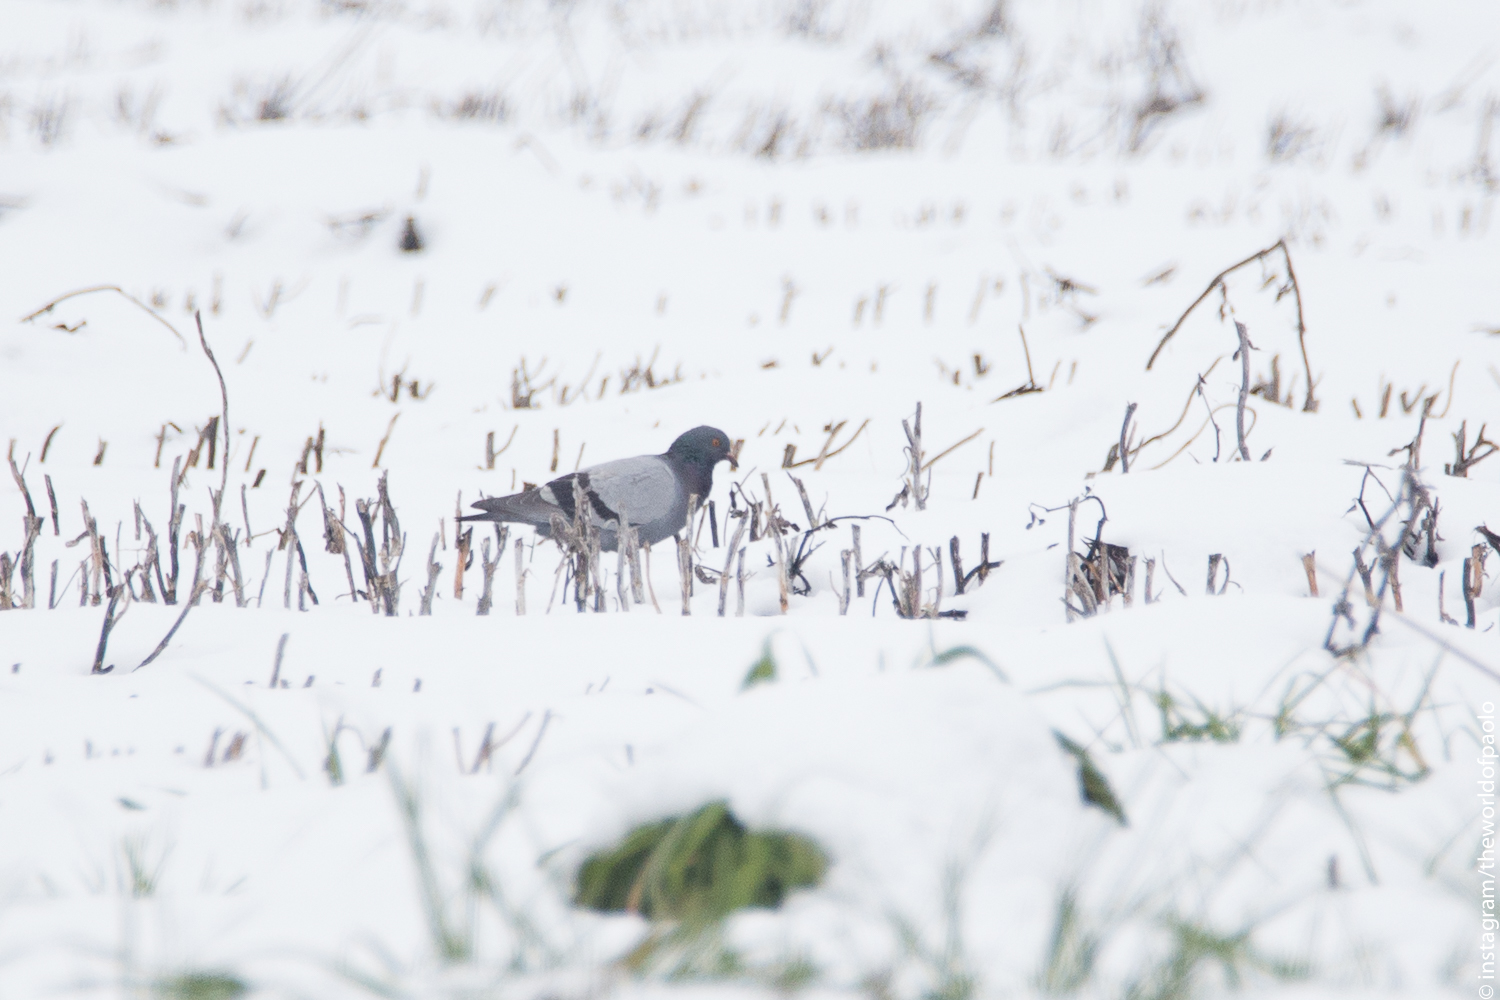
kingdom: Animalia
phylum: Chordata
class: Aves
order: Columbiformes
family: Columbidae
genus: Columba
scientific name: Columba livia
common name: Rock pigeon
